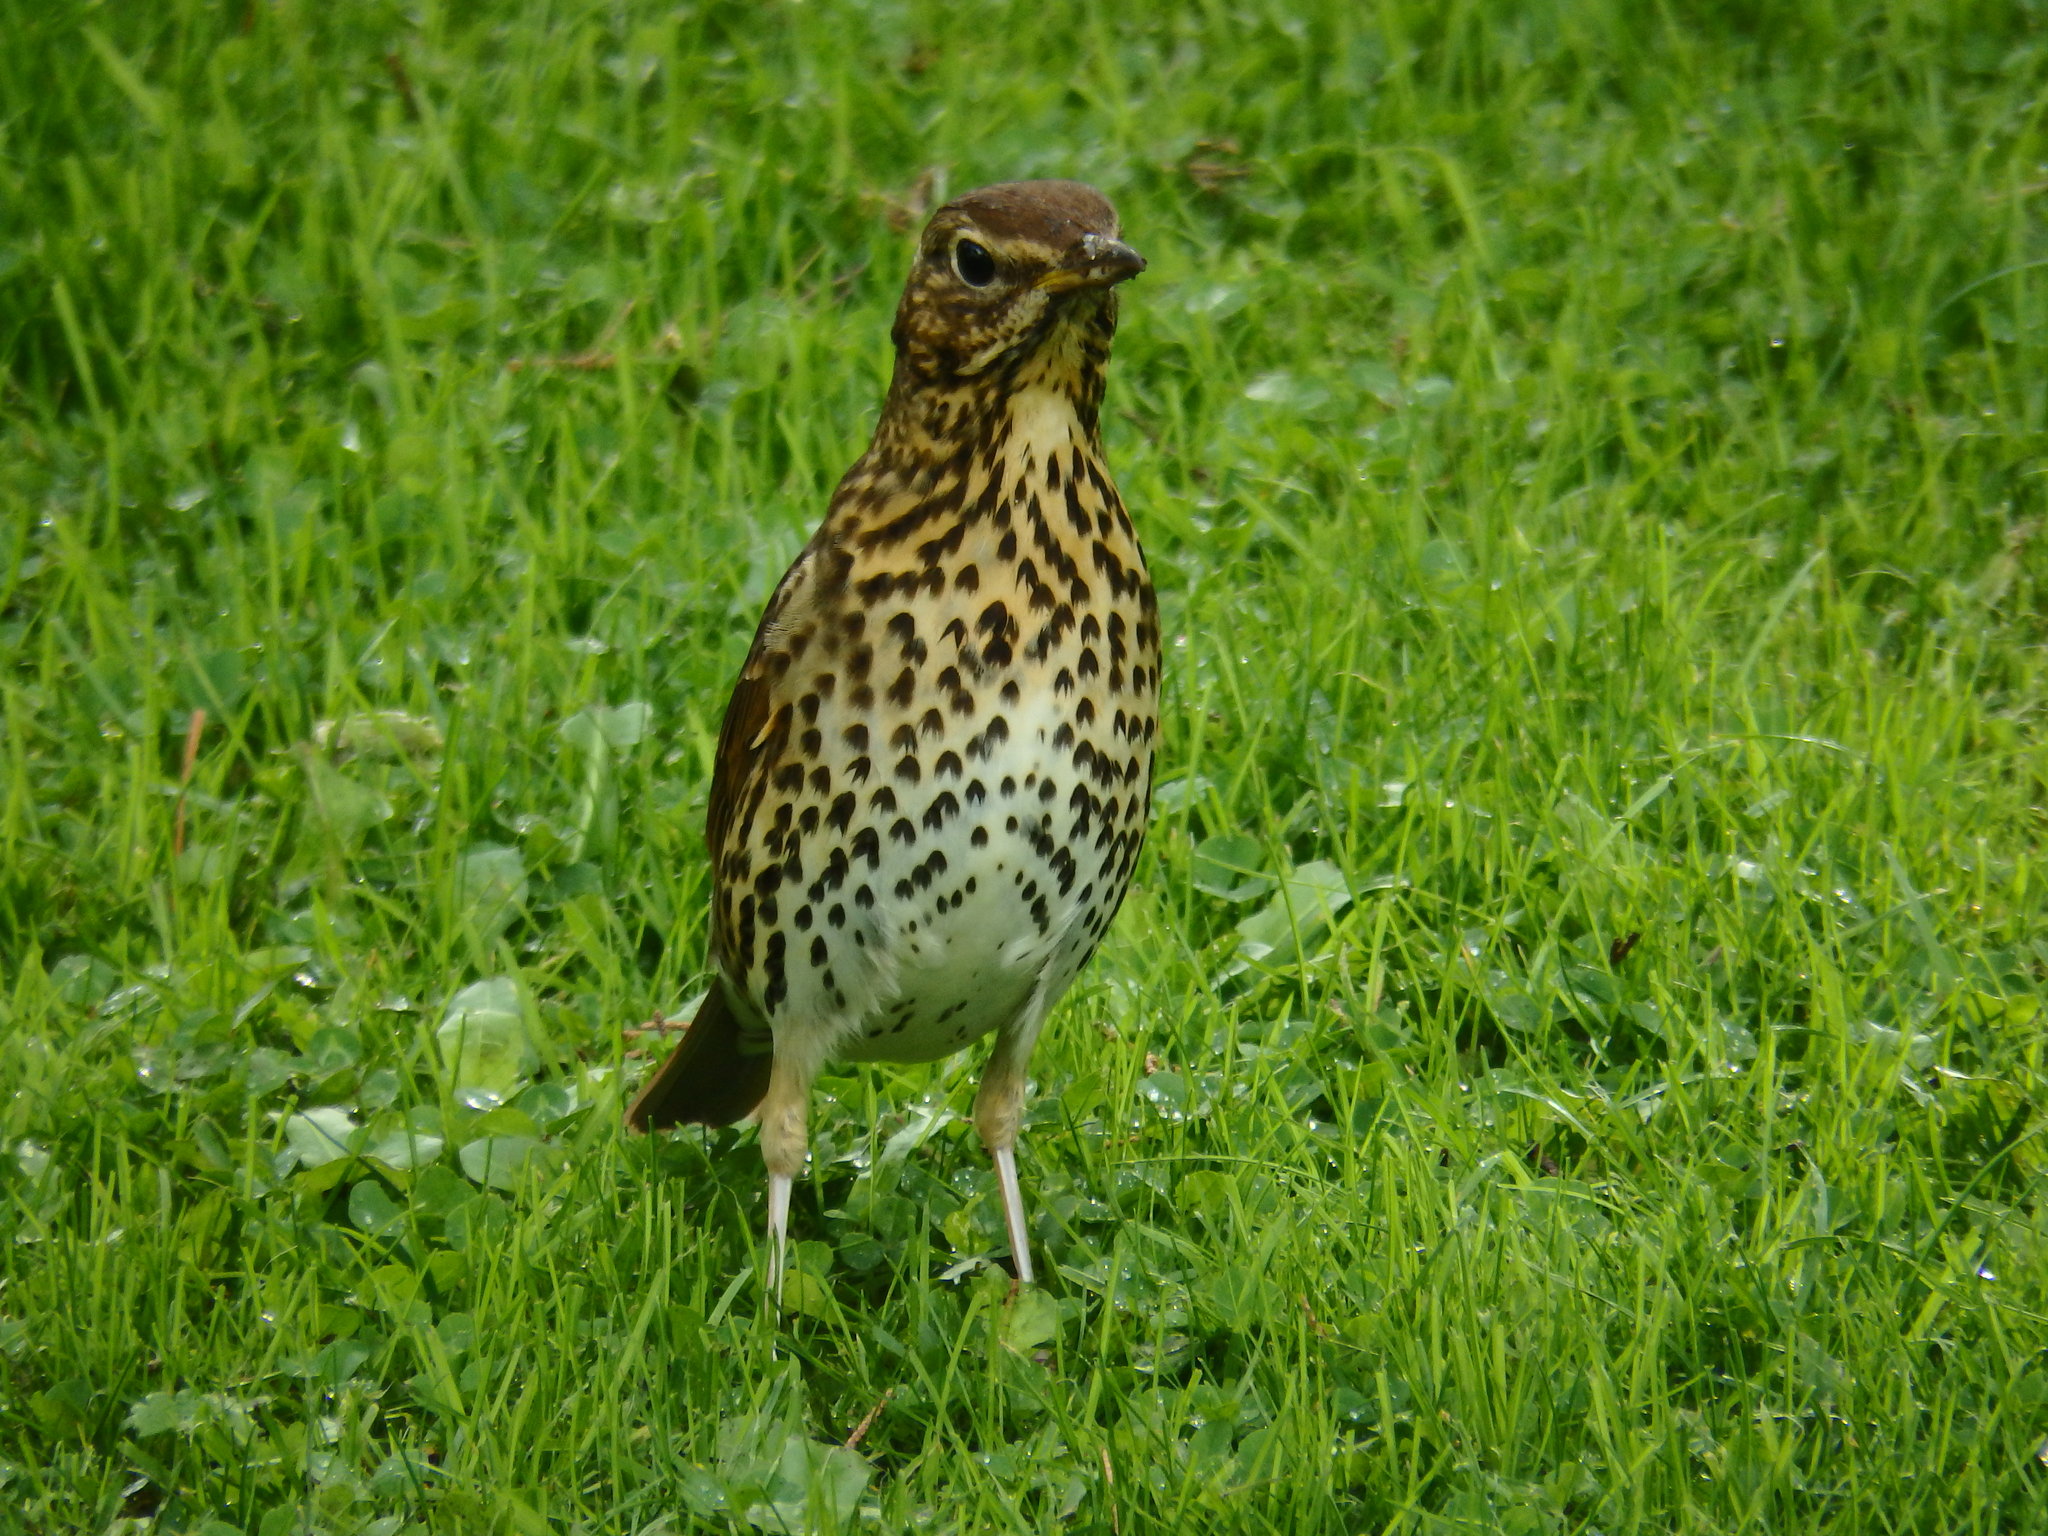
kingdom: Animalia
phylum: Chordata
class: Aves
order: Passeriformes
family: Turdidae
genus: Turdus
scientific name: Turdus philomelos
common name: Song thrush
